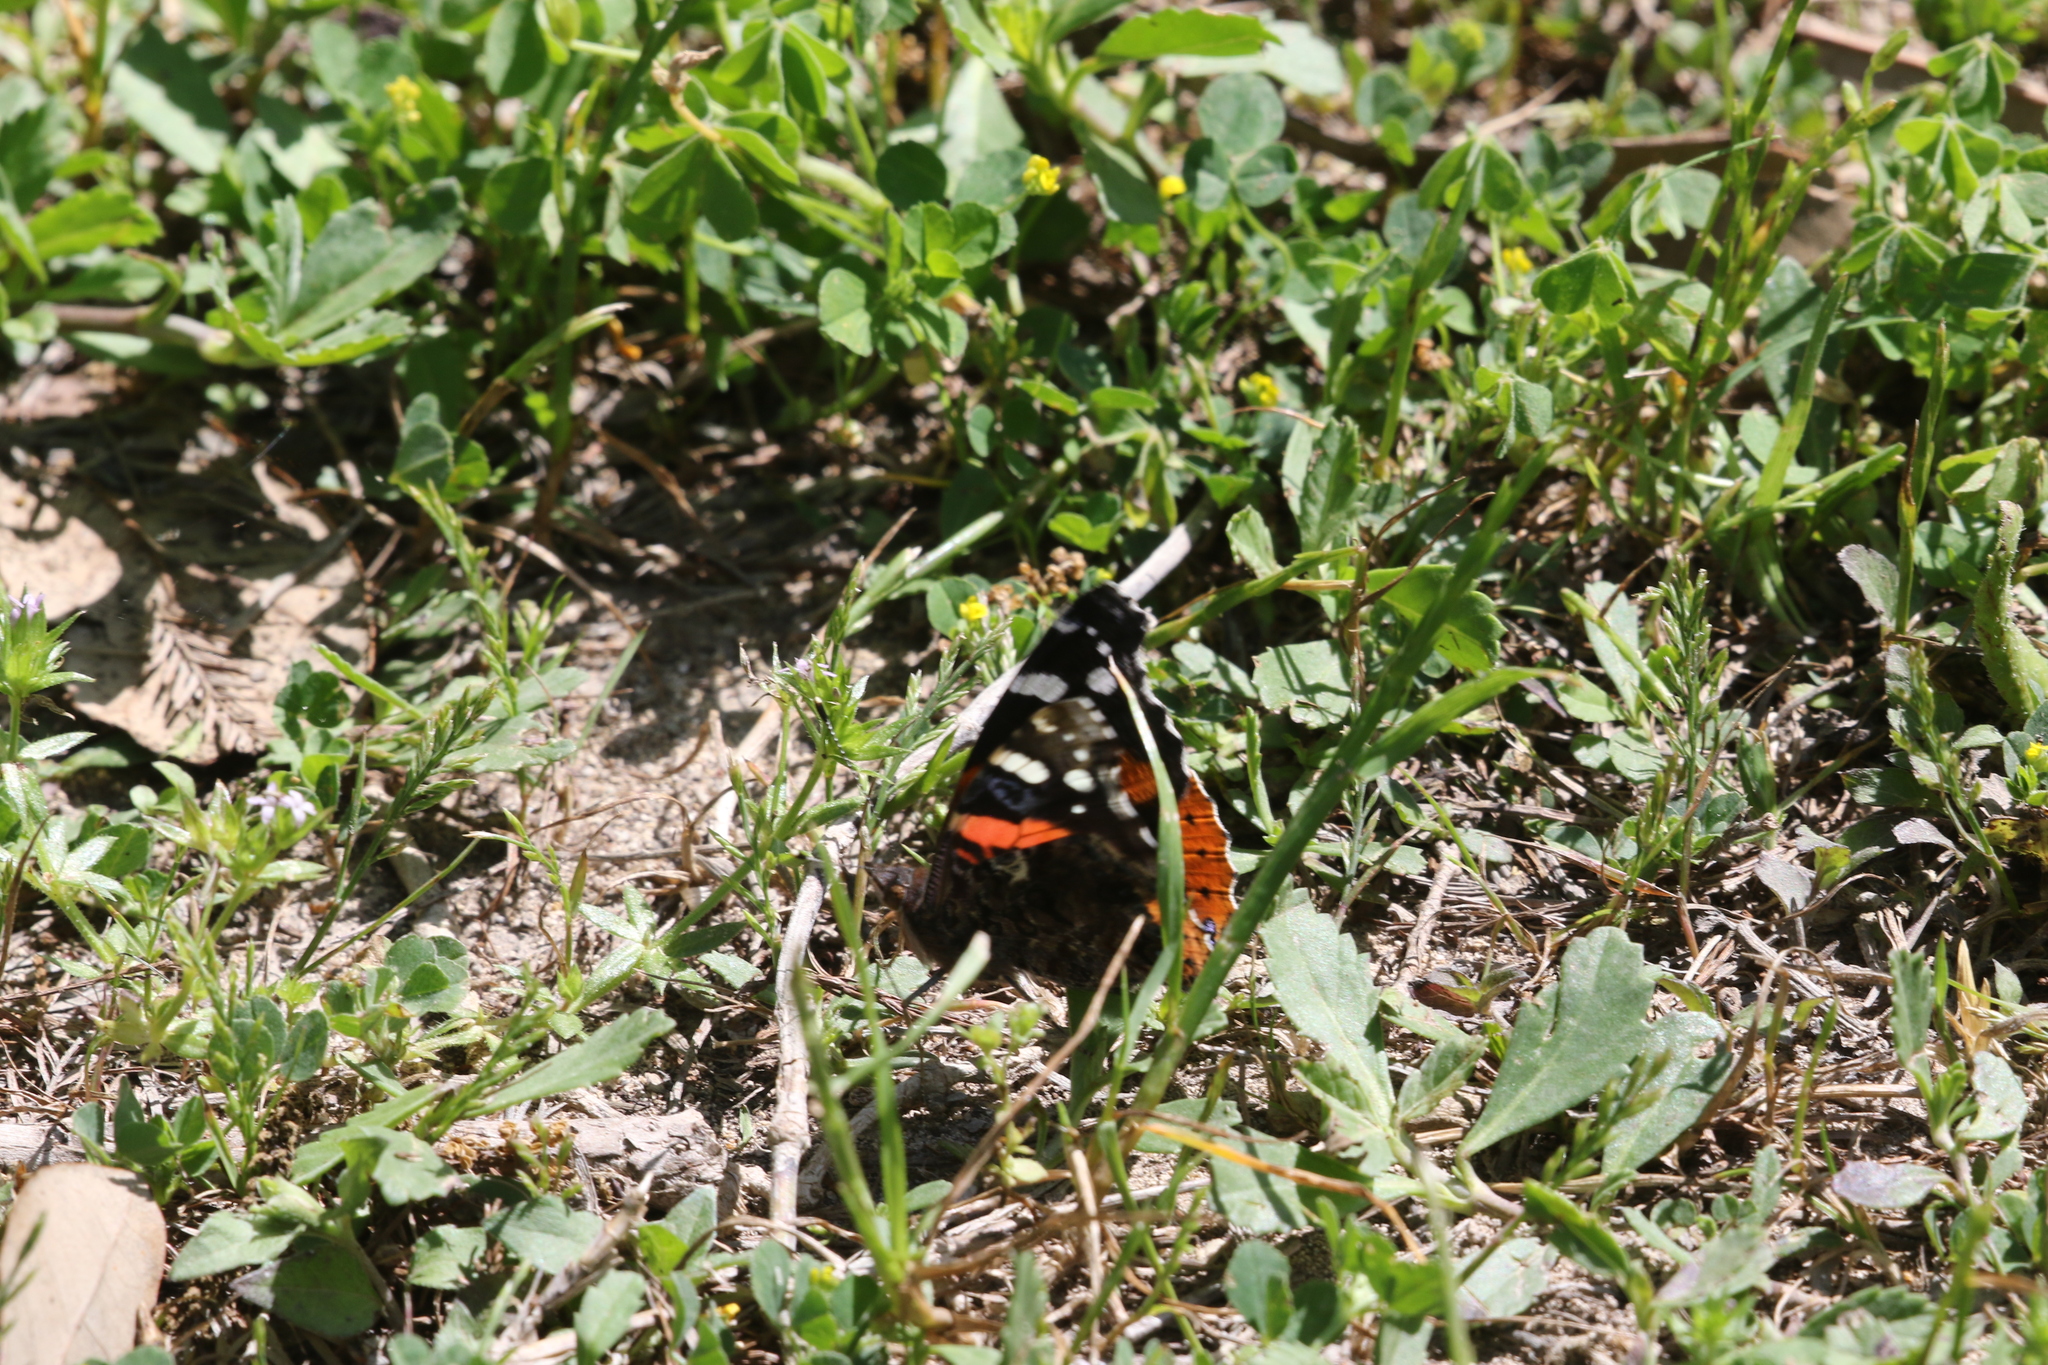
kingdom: Animalia
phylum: Arthropoda
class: Insecta
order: Lepidoptera
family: Nymphalidae
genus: Vanessa
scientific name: Vanessa atalanta
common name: Red admiral
